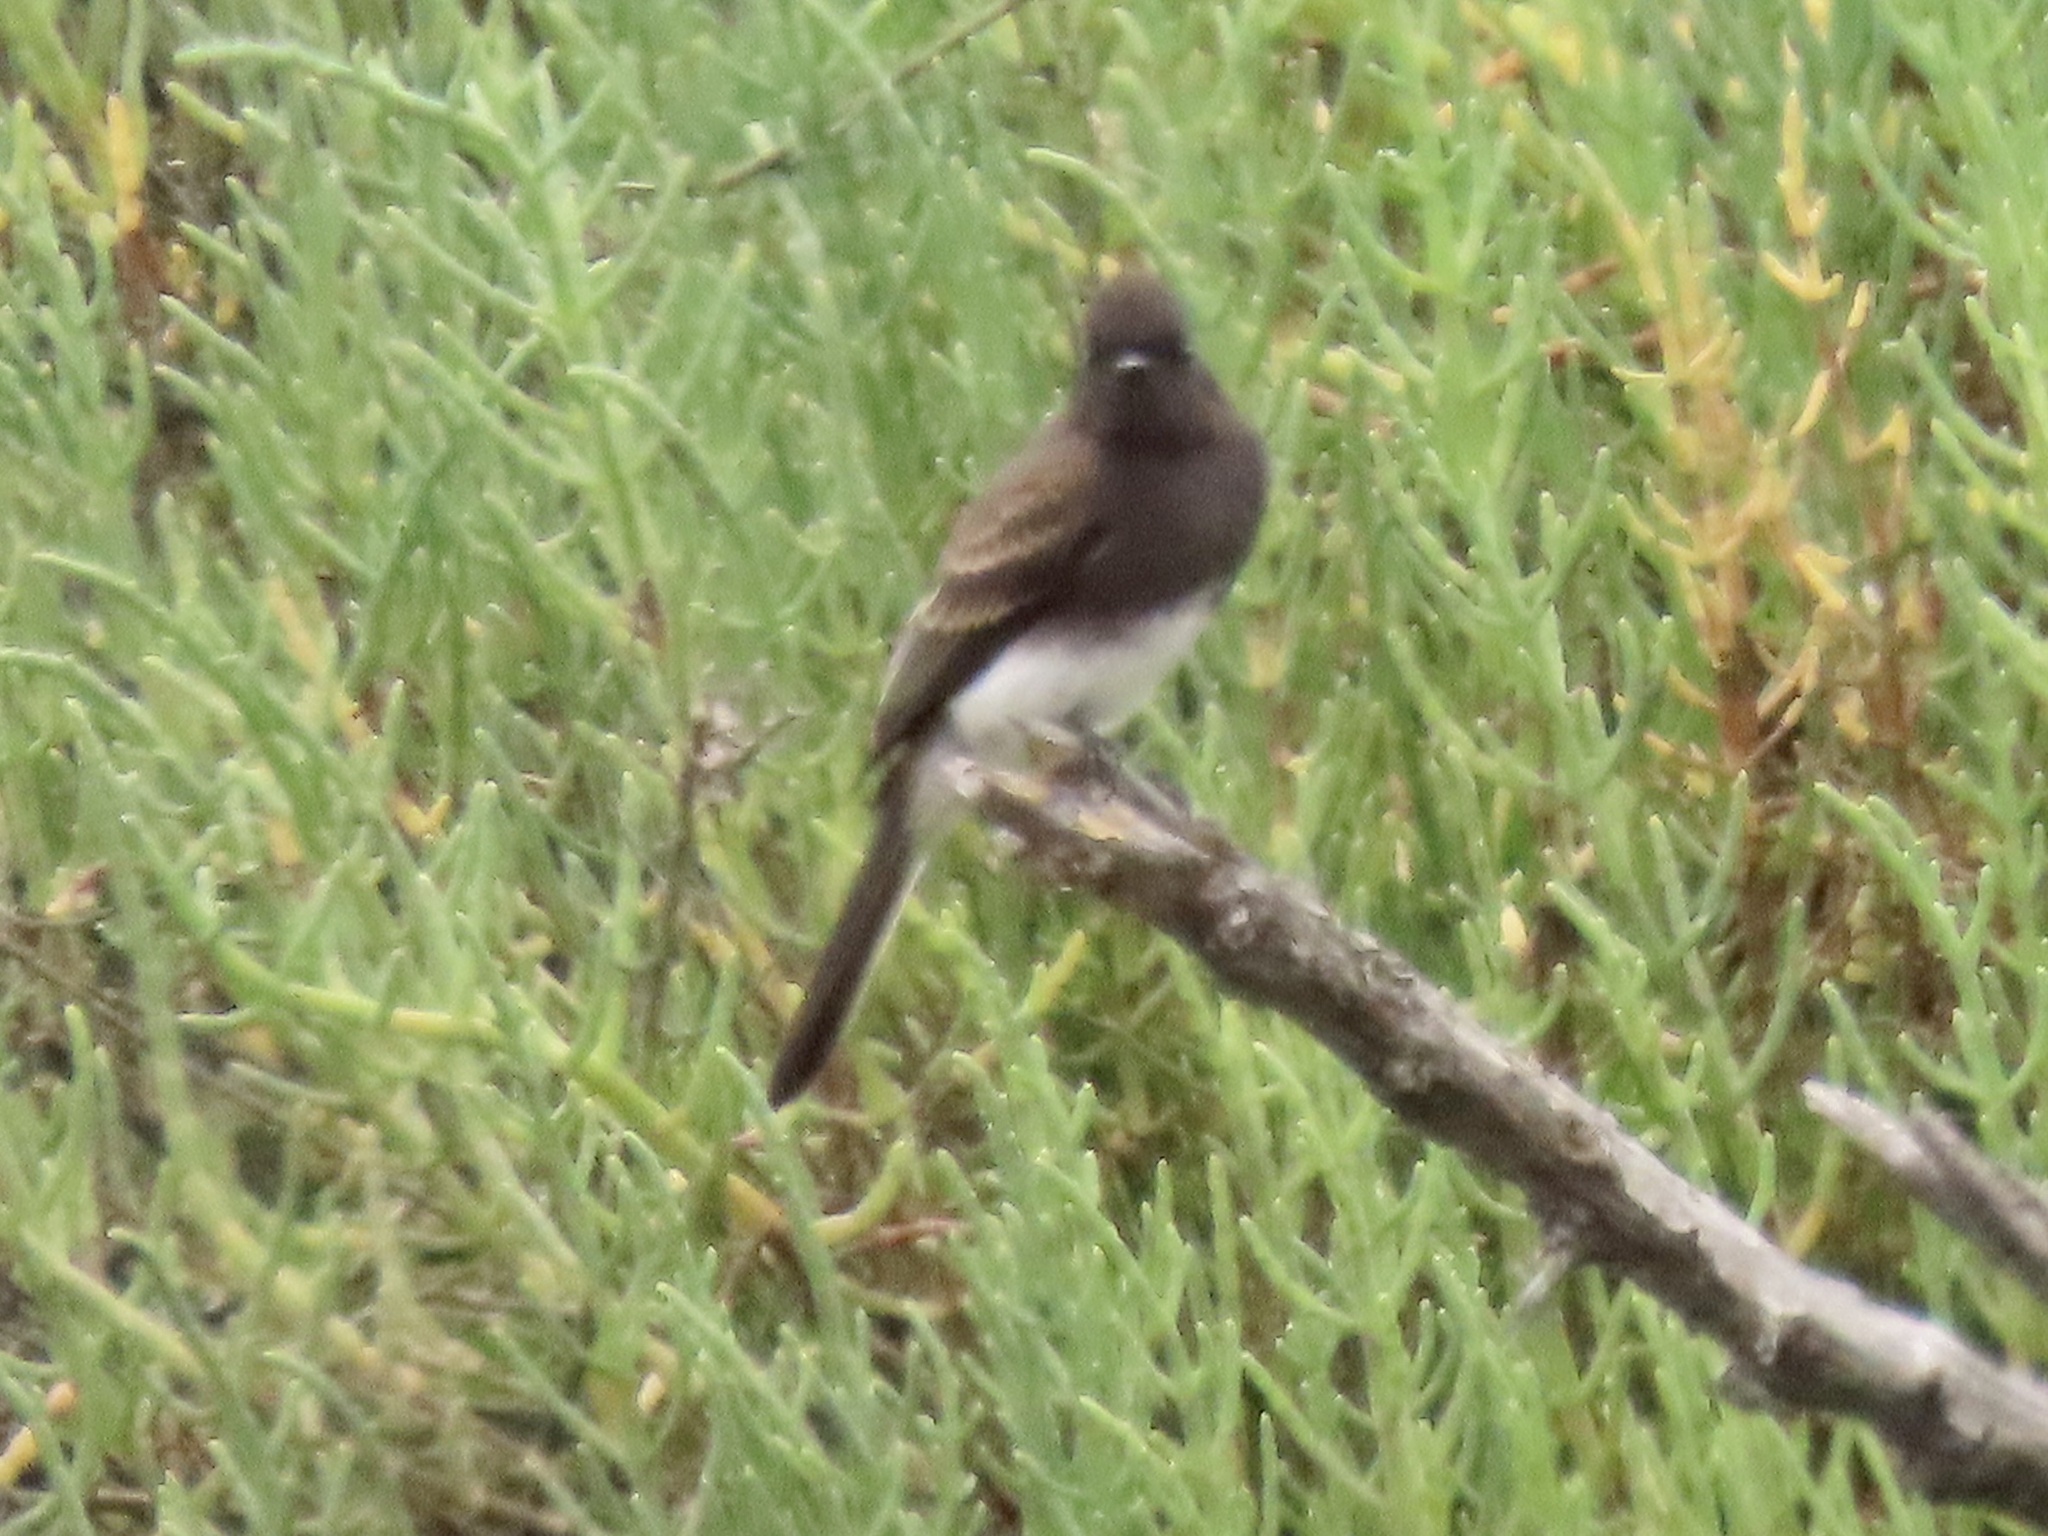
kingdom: Animalia
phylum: Chordata
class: Aves
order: Passeriformes
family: Tyrannidae
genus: Sayornis
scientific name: Sayornis nigricans
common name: Black phoebe
